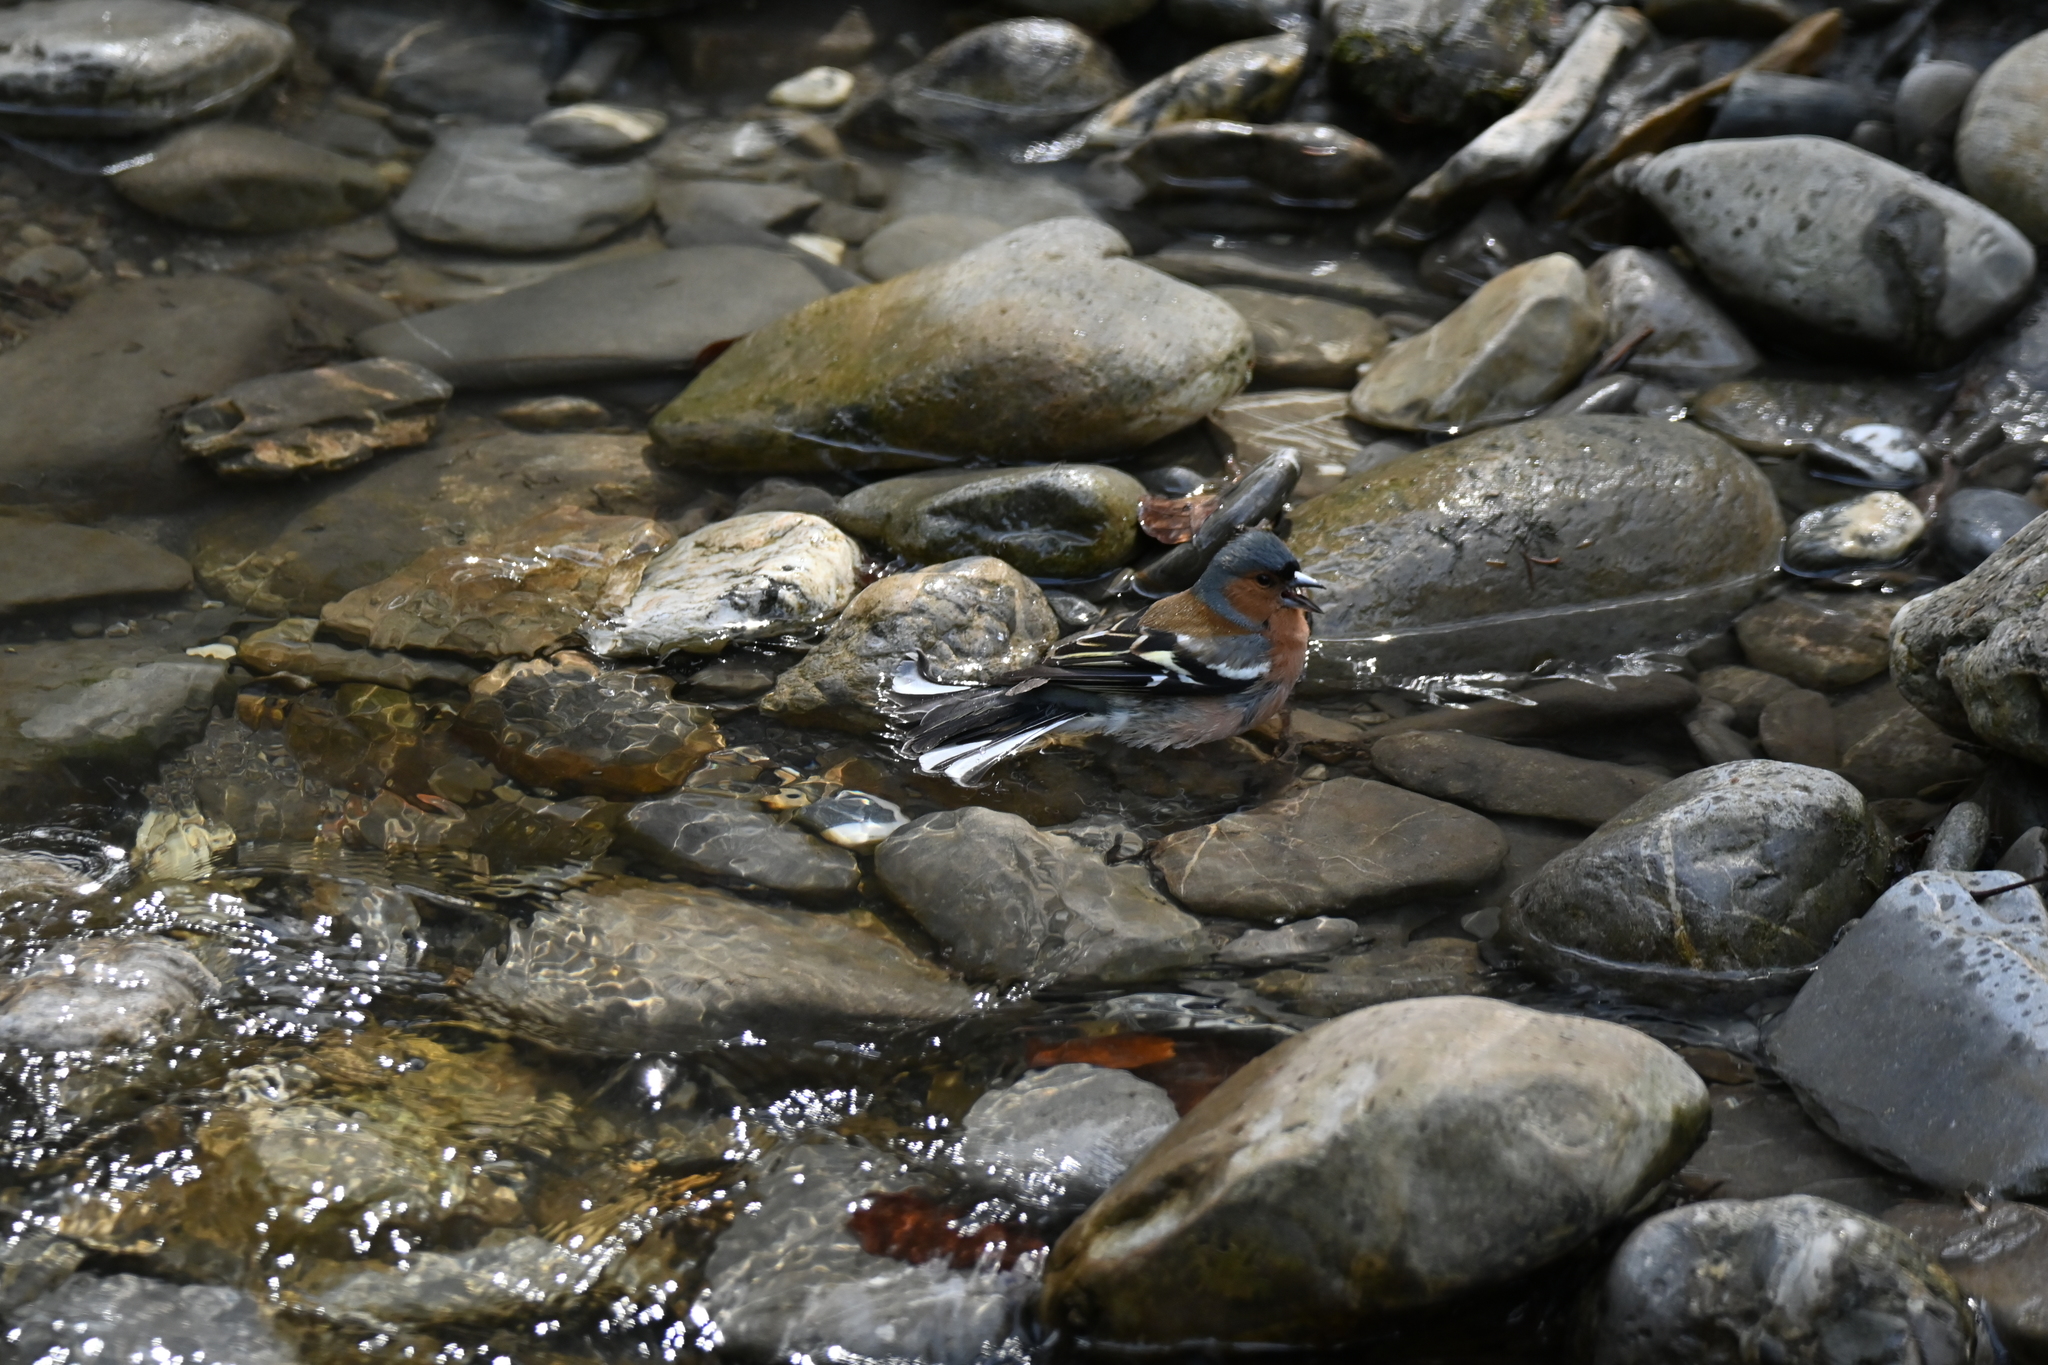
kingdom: Animalia
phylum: Chordata
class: Aves
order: Passeriformes
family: Fringillidae
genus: Fringilla
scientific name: Fringilla coelebs
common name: Common chaffinch
